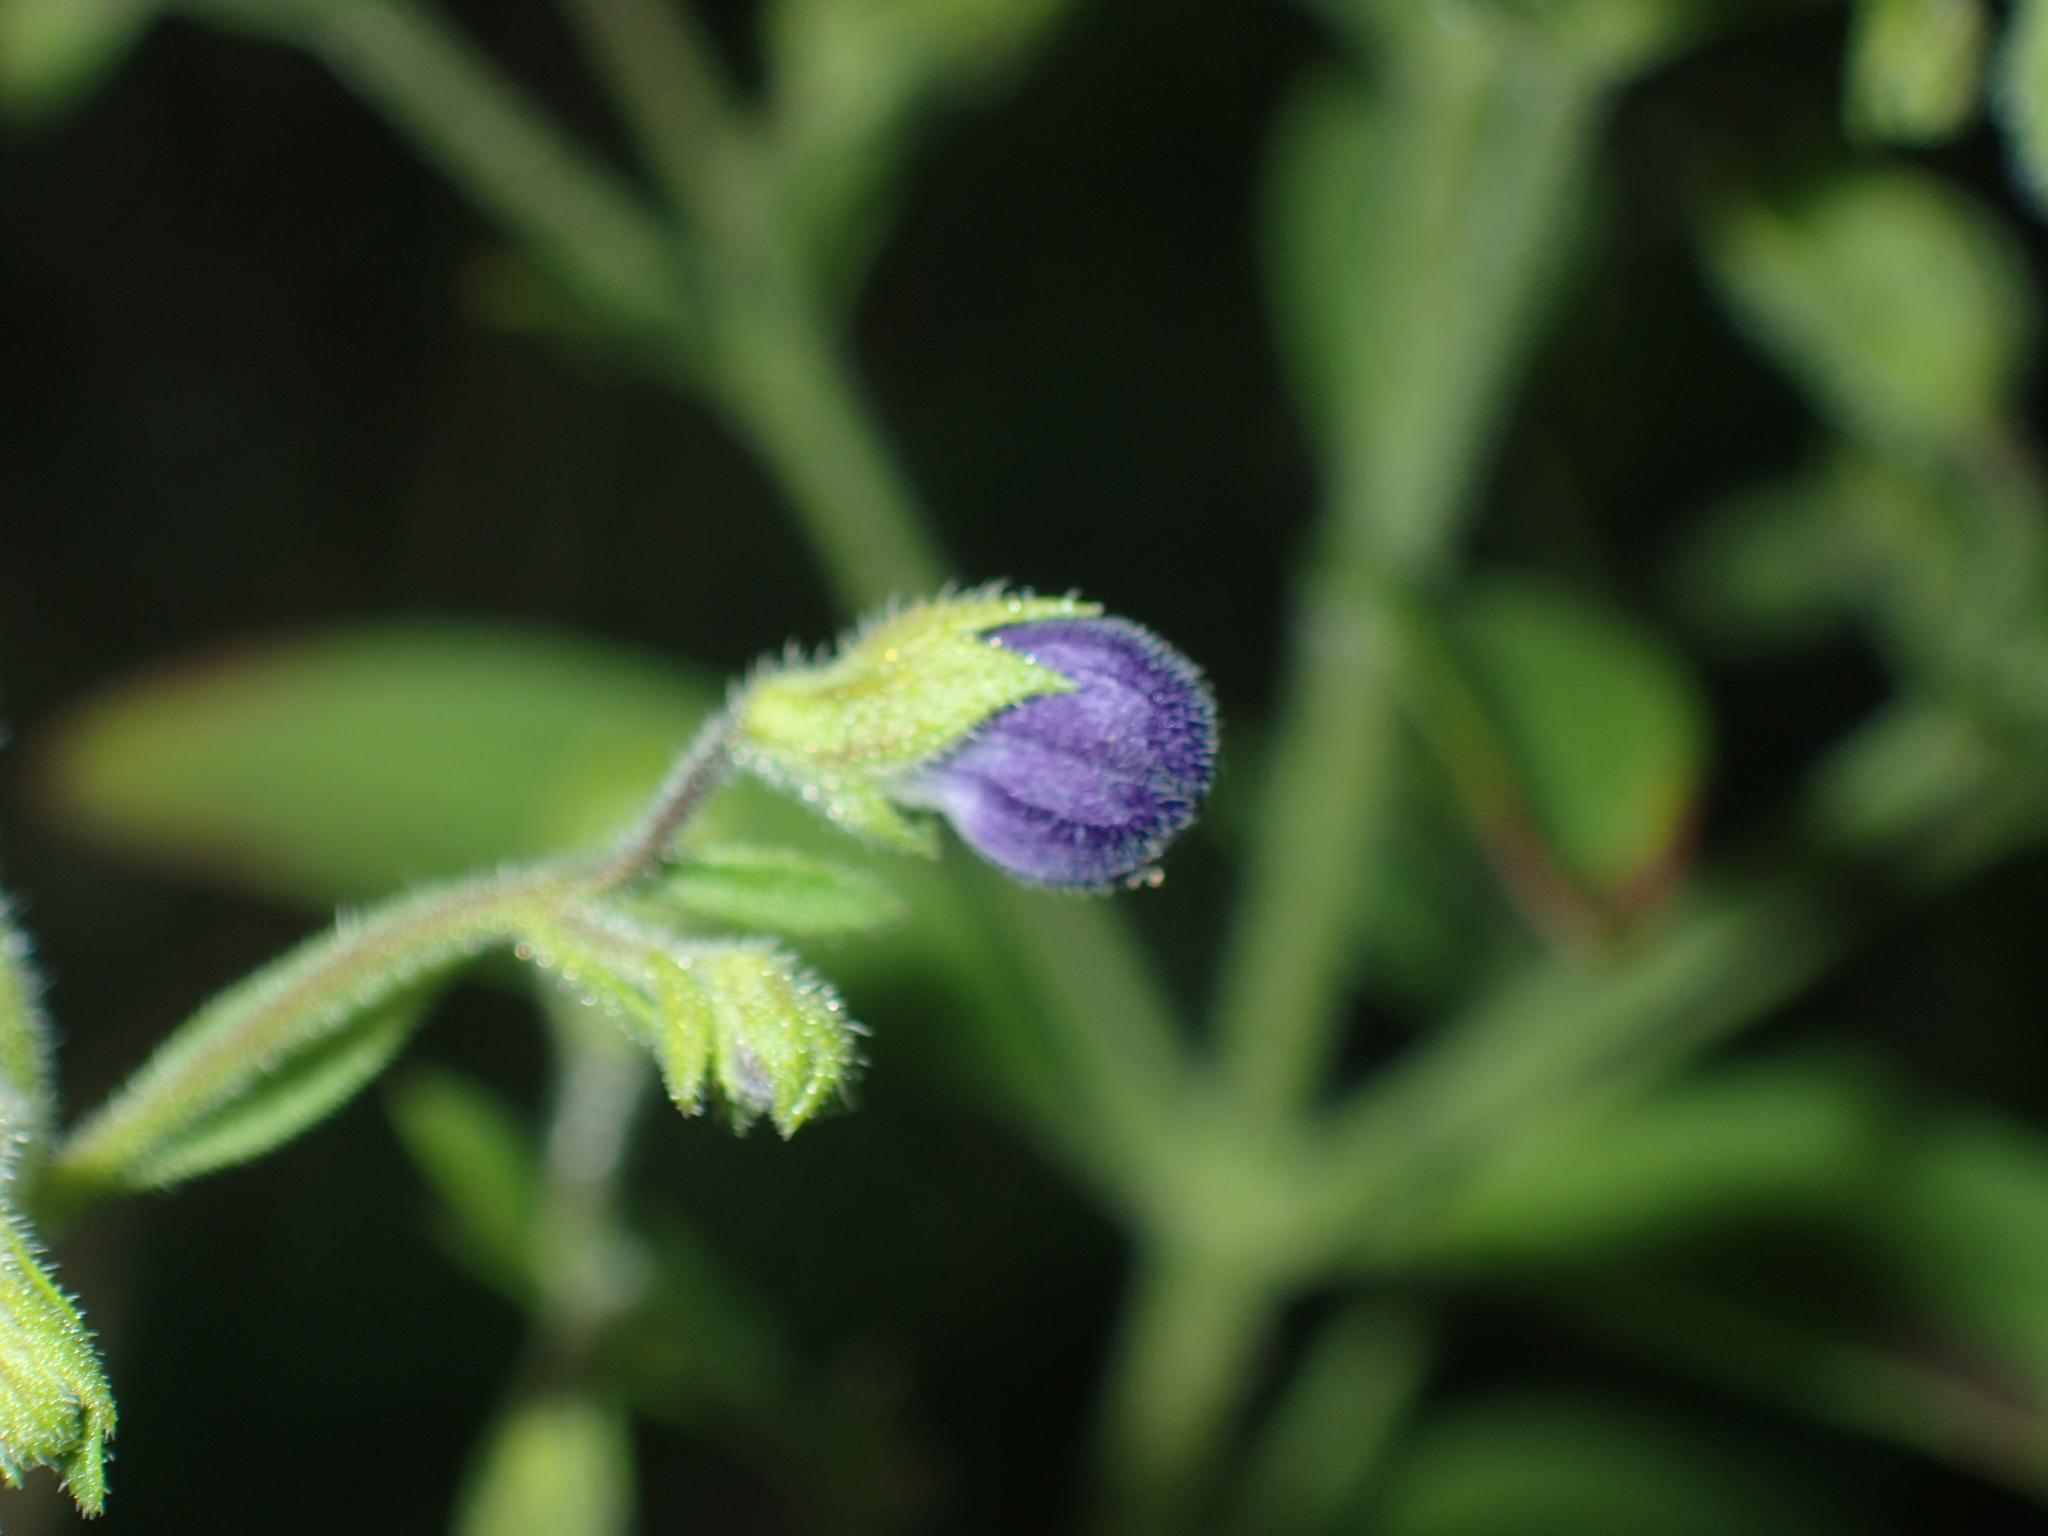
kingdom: Plantae
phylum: Tracheophyta
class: Magnoliopsida
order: Lamiales
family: Lamiaceae
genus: Trichostema
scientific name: Trichostema dichotomum
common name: Bastard pennyroyal
